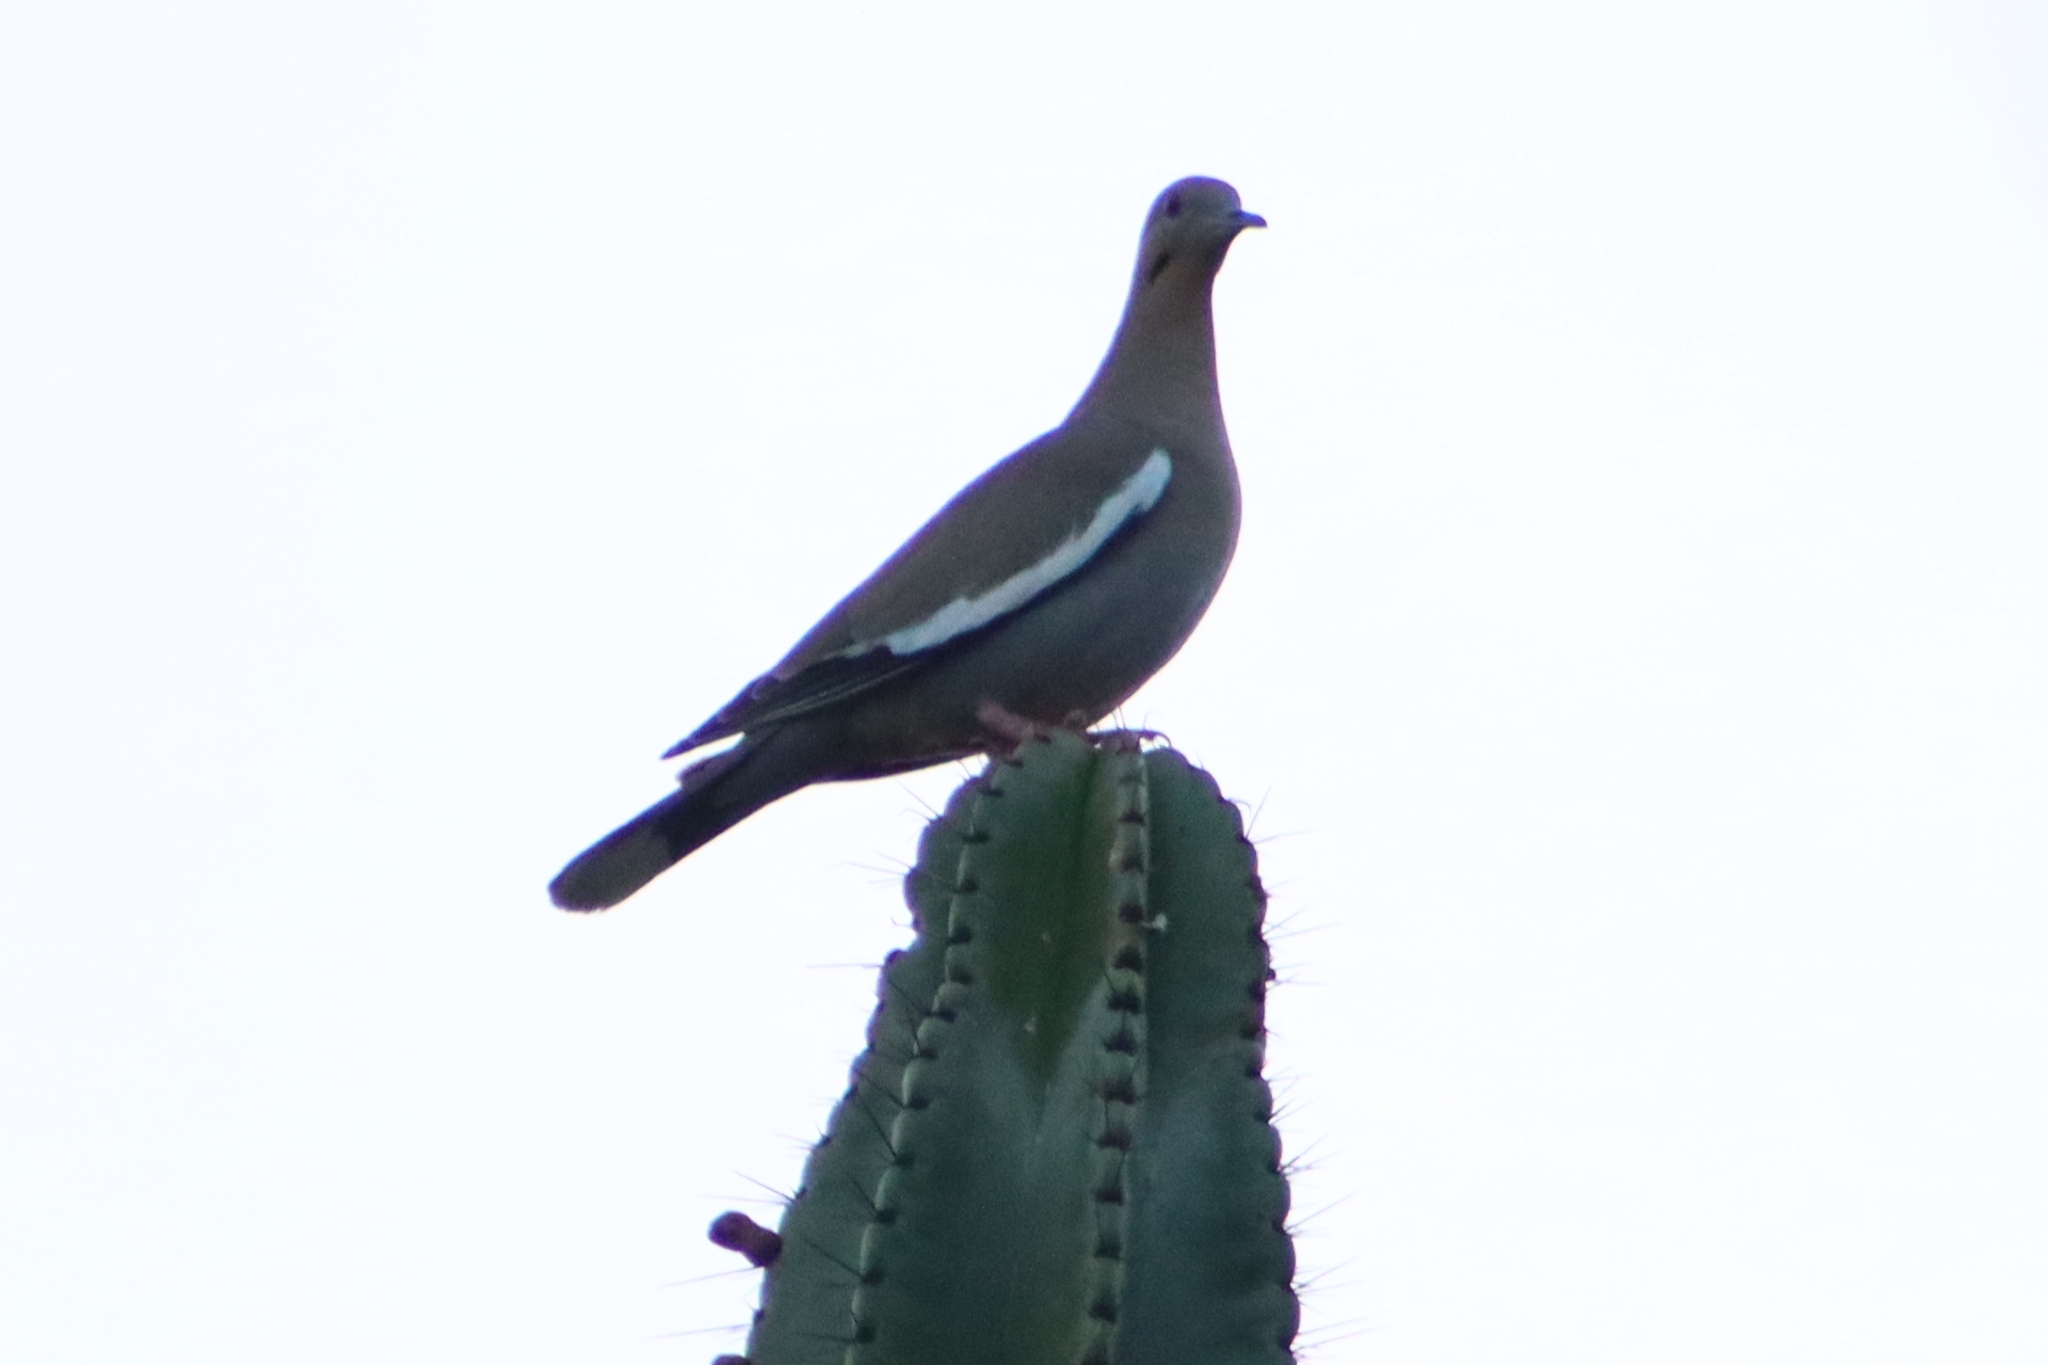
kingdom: Animalia
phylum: Chordata
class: Aves
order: Columbiformes
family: Columbidae
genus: Zenaida
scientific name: Zenaida asiatica
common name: White-winged dove
